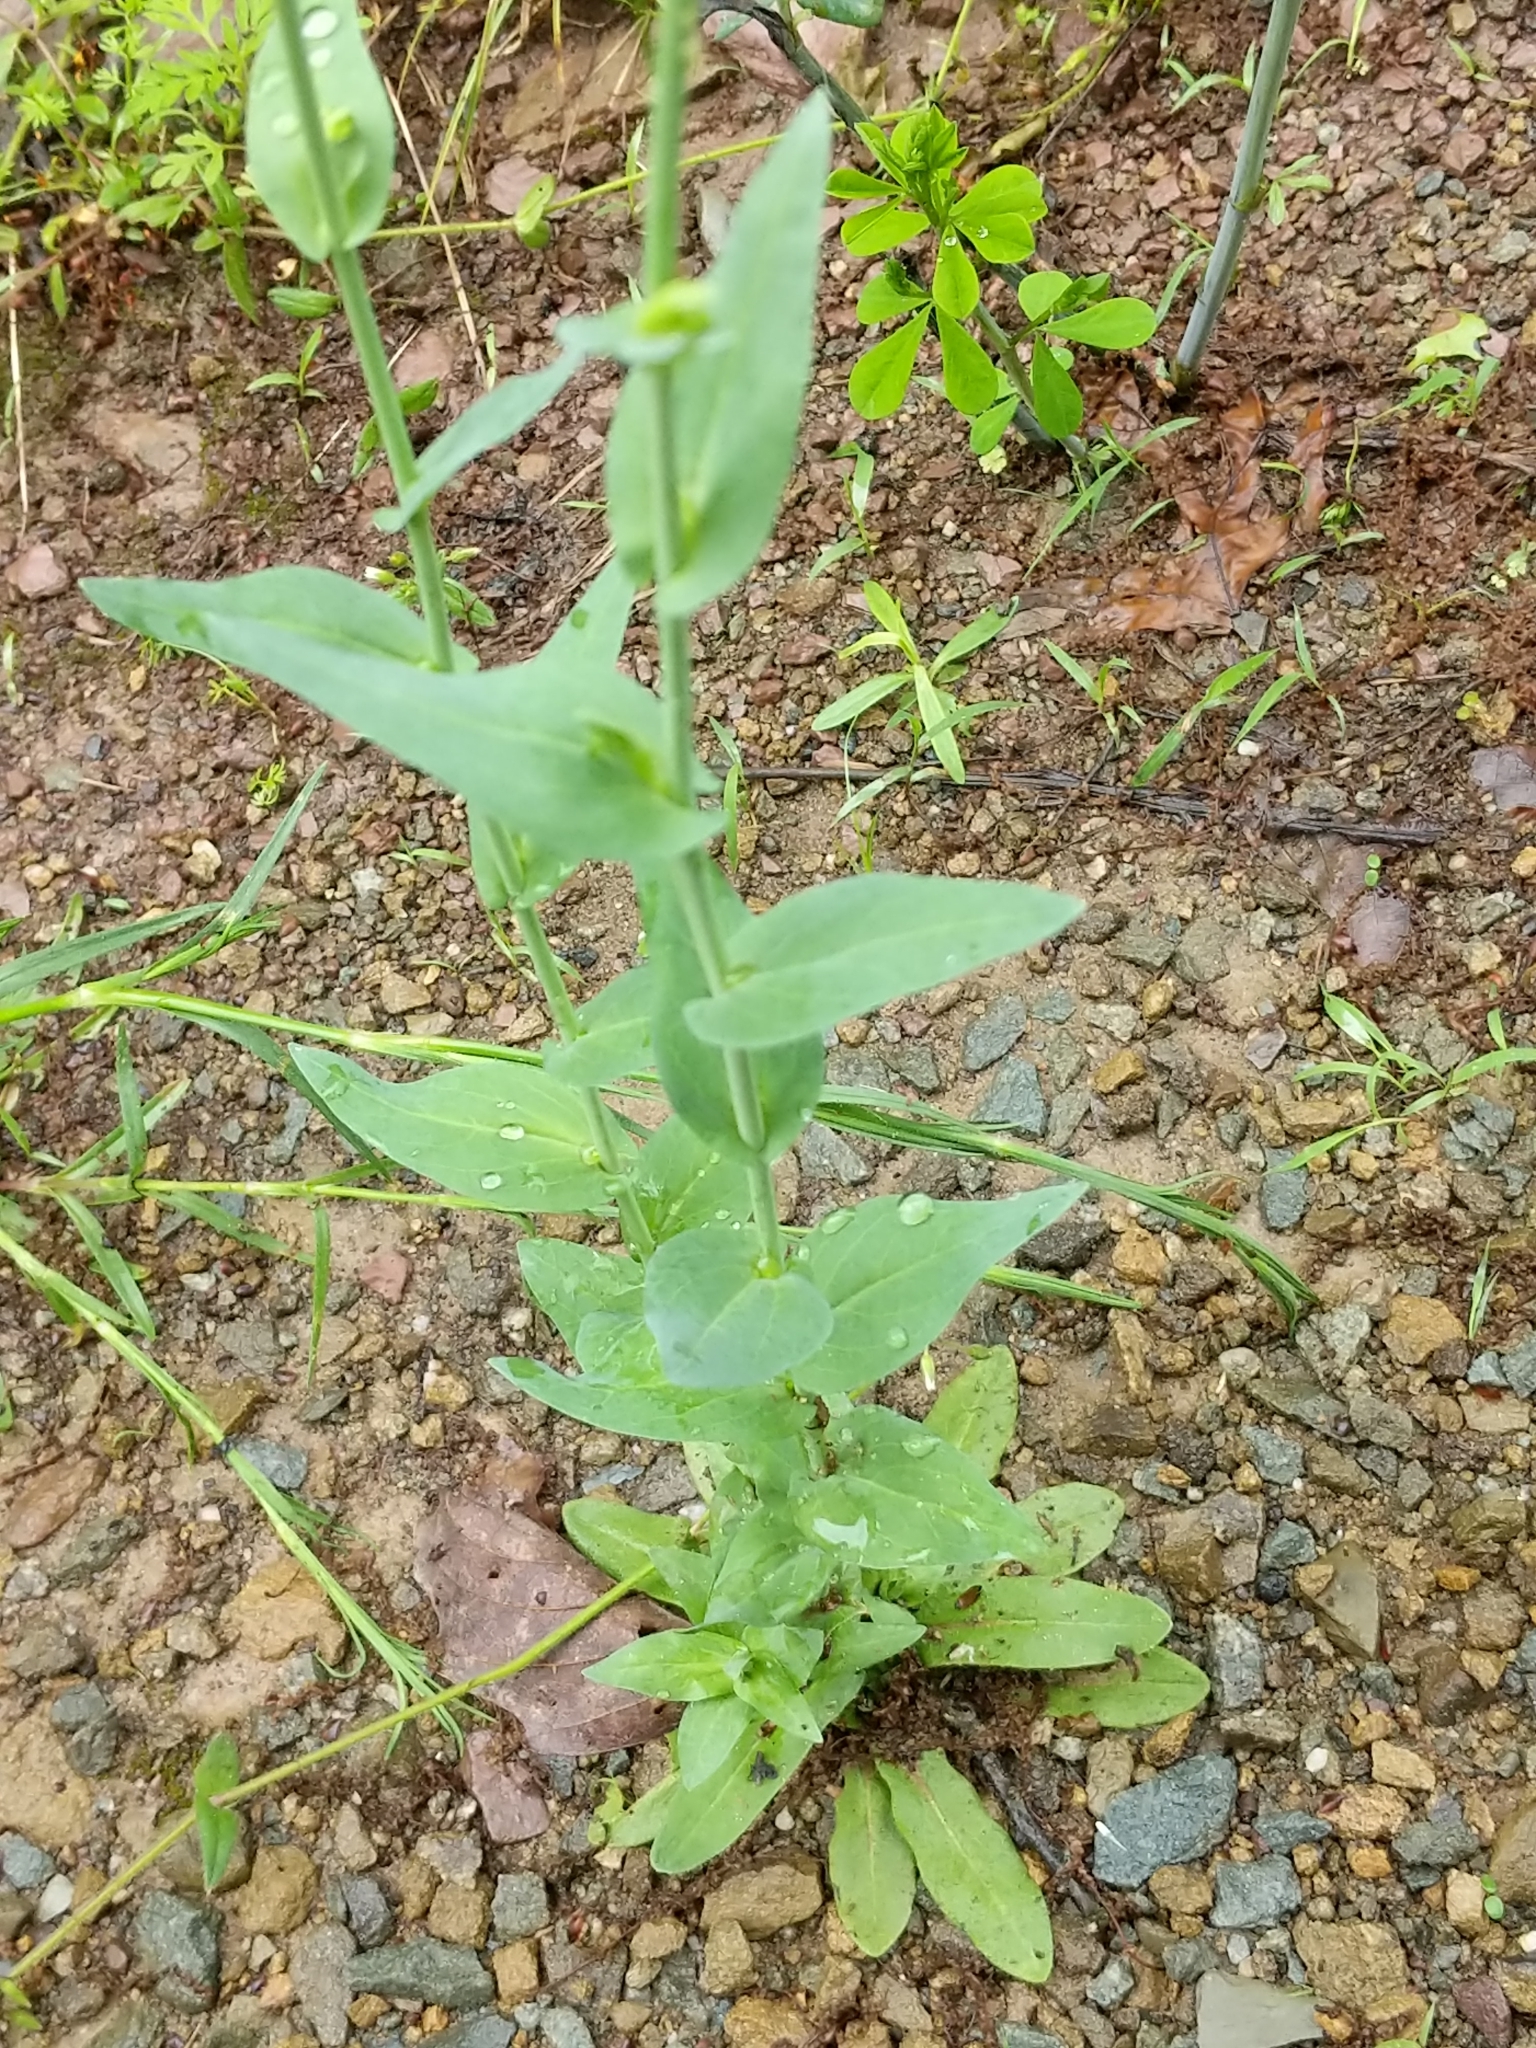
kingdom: Plantae
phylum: Tracheophyta
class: Magnoliopsida
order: Brassicales
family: Brassicaceae
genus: Turritis
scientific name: Turritis glabra
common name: Tower rockcress
